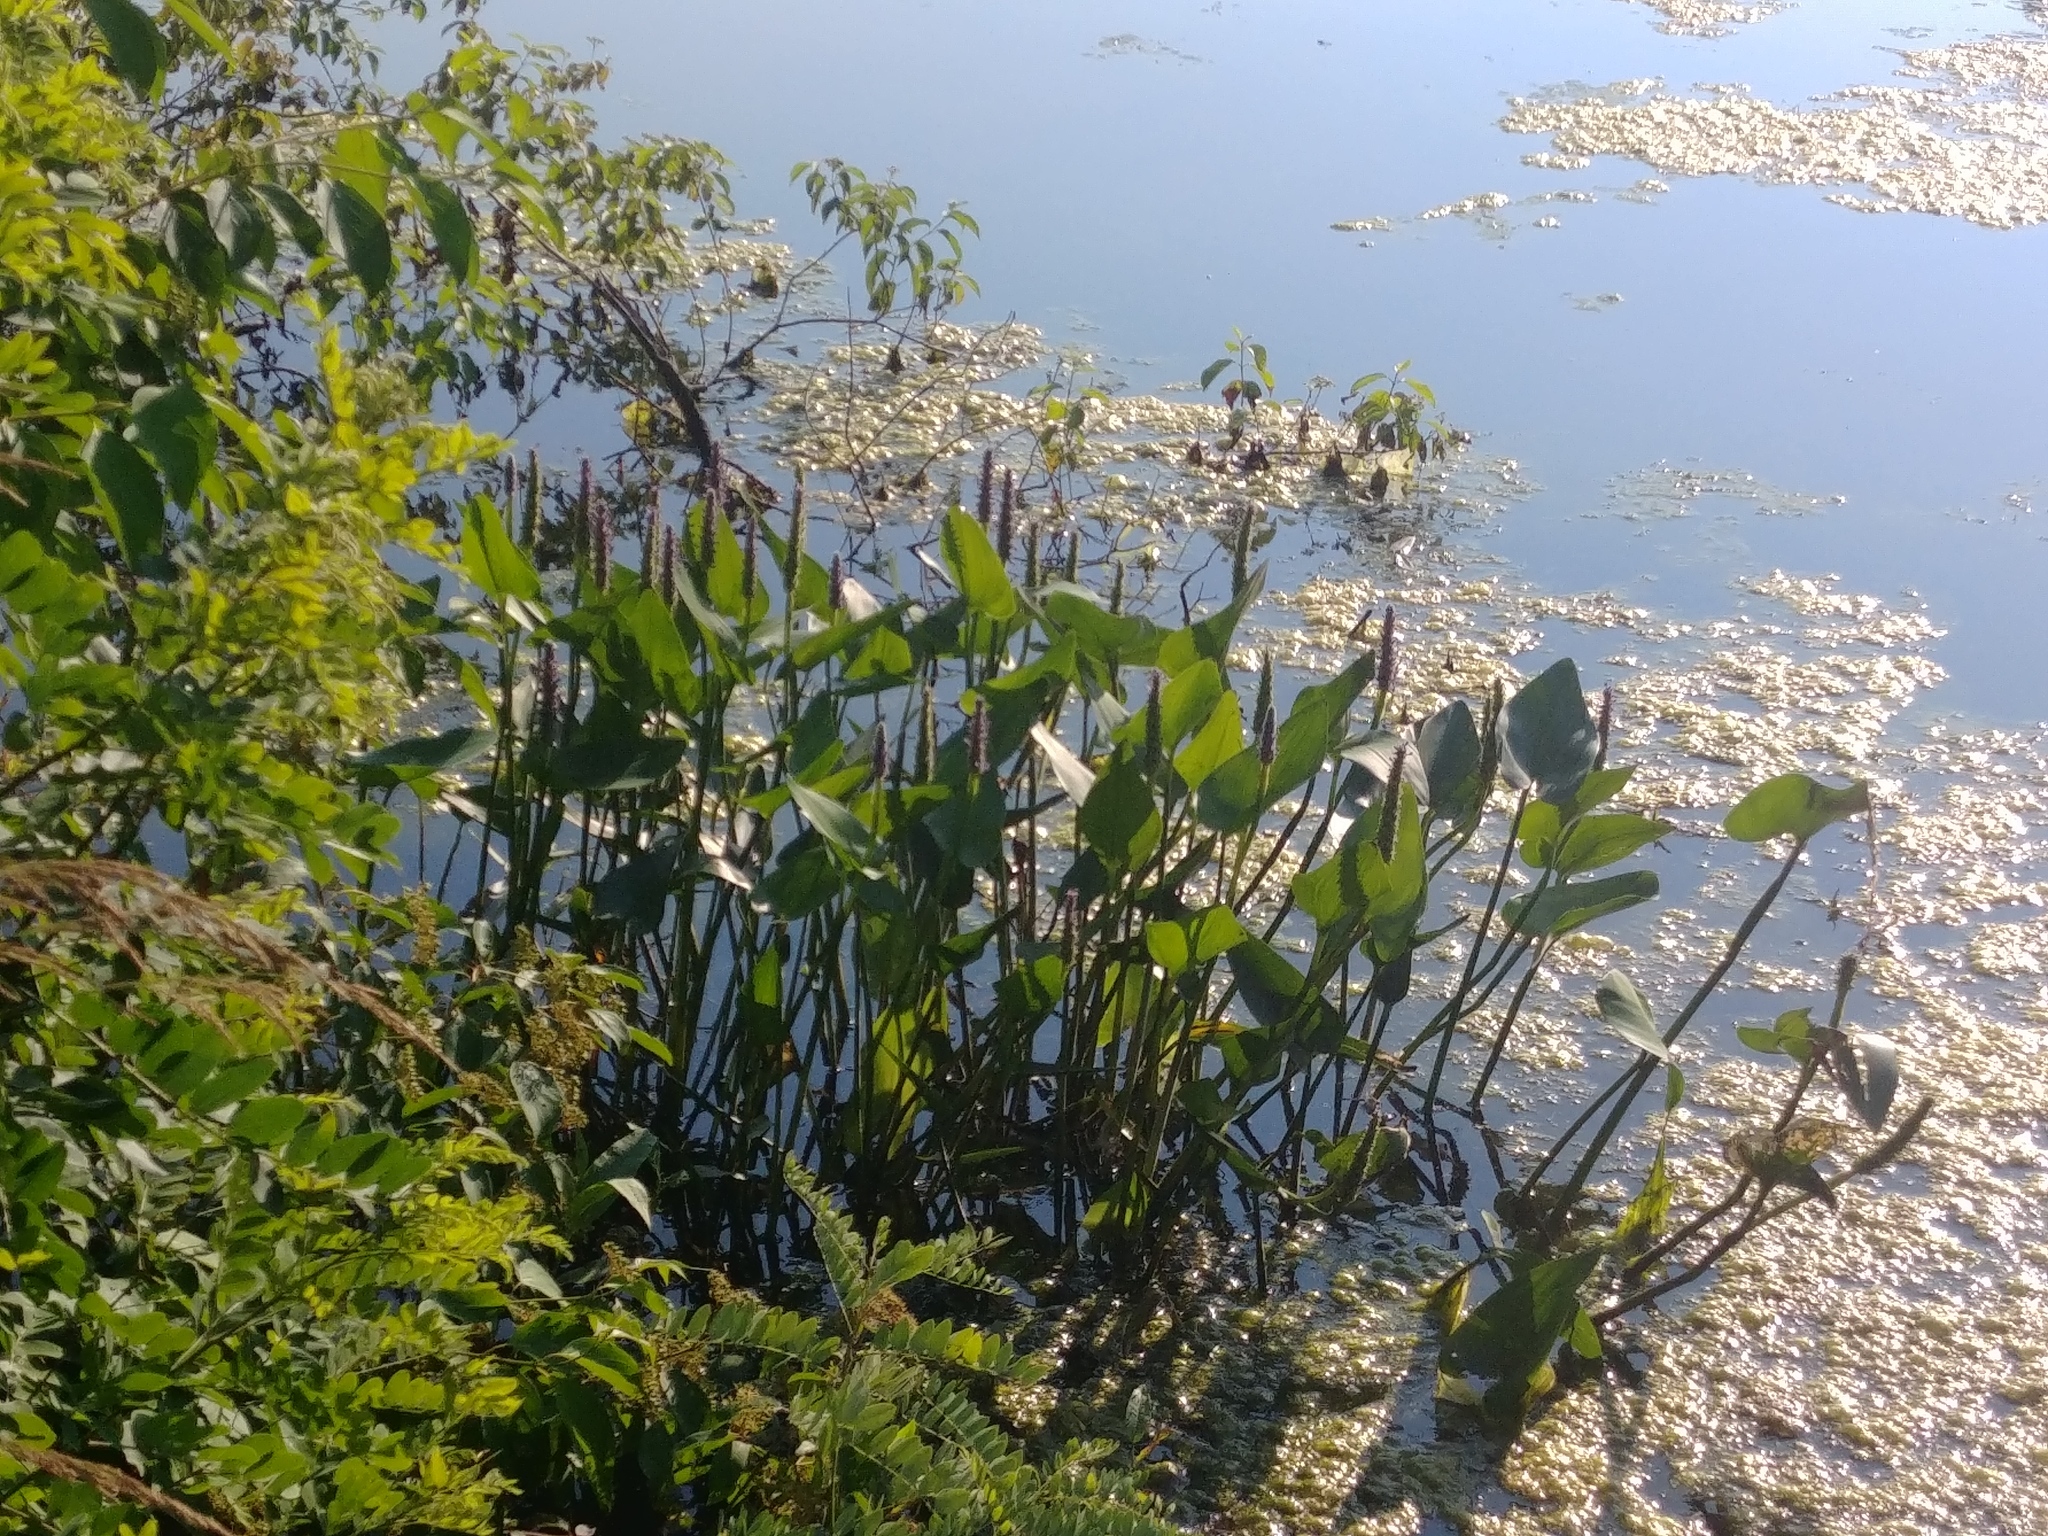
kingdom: Plantae
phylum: Tracheophyta
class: Liliopsida
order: Commelinales
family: Pontederiaceae
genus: Pontederia
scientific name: Pontederia cordata
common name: Pickerelweed
